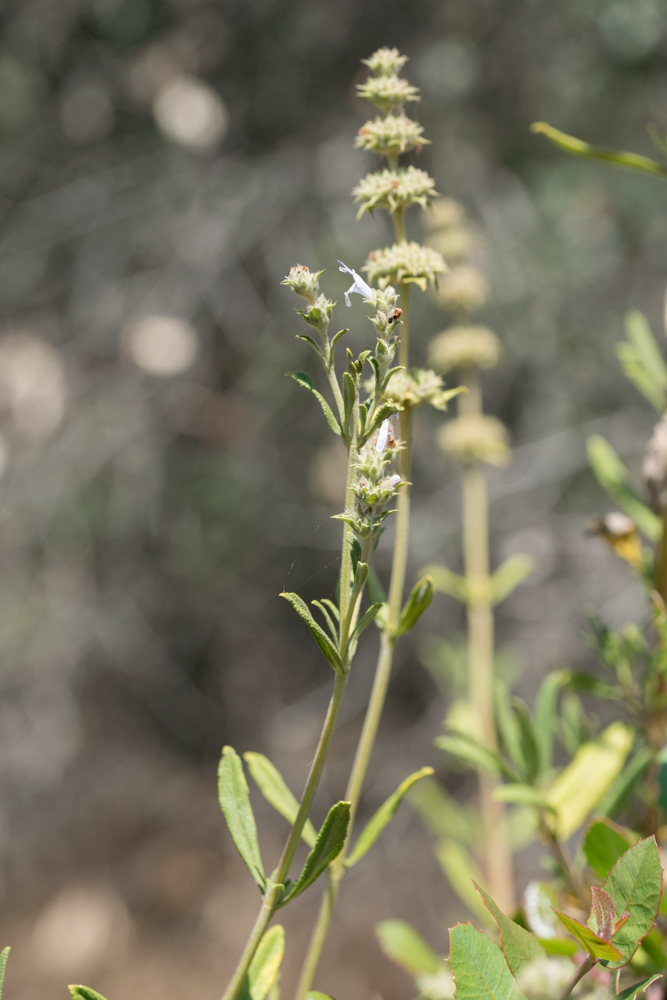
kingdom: Plantae
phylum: Tracheophyta
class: Magnoliopsida
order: Lamiales
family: Lamiaceae
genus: Salvia
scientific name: Salvia mellifera
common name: Black sage
